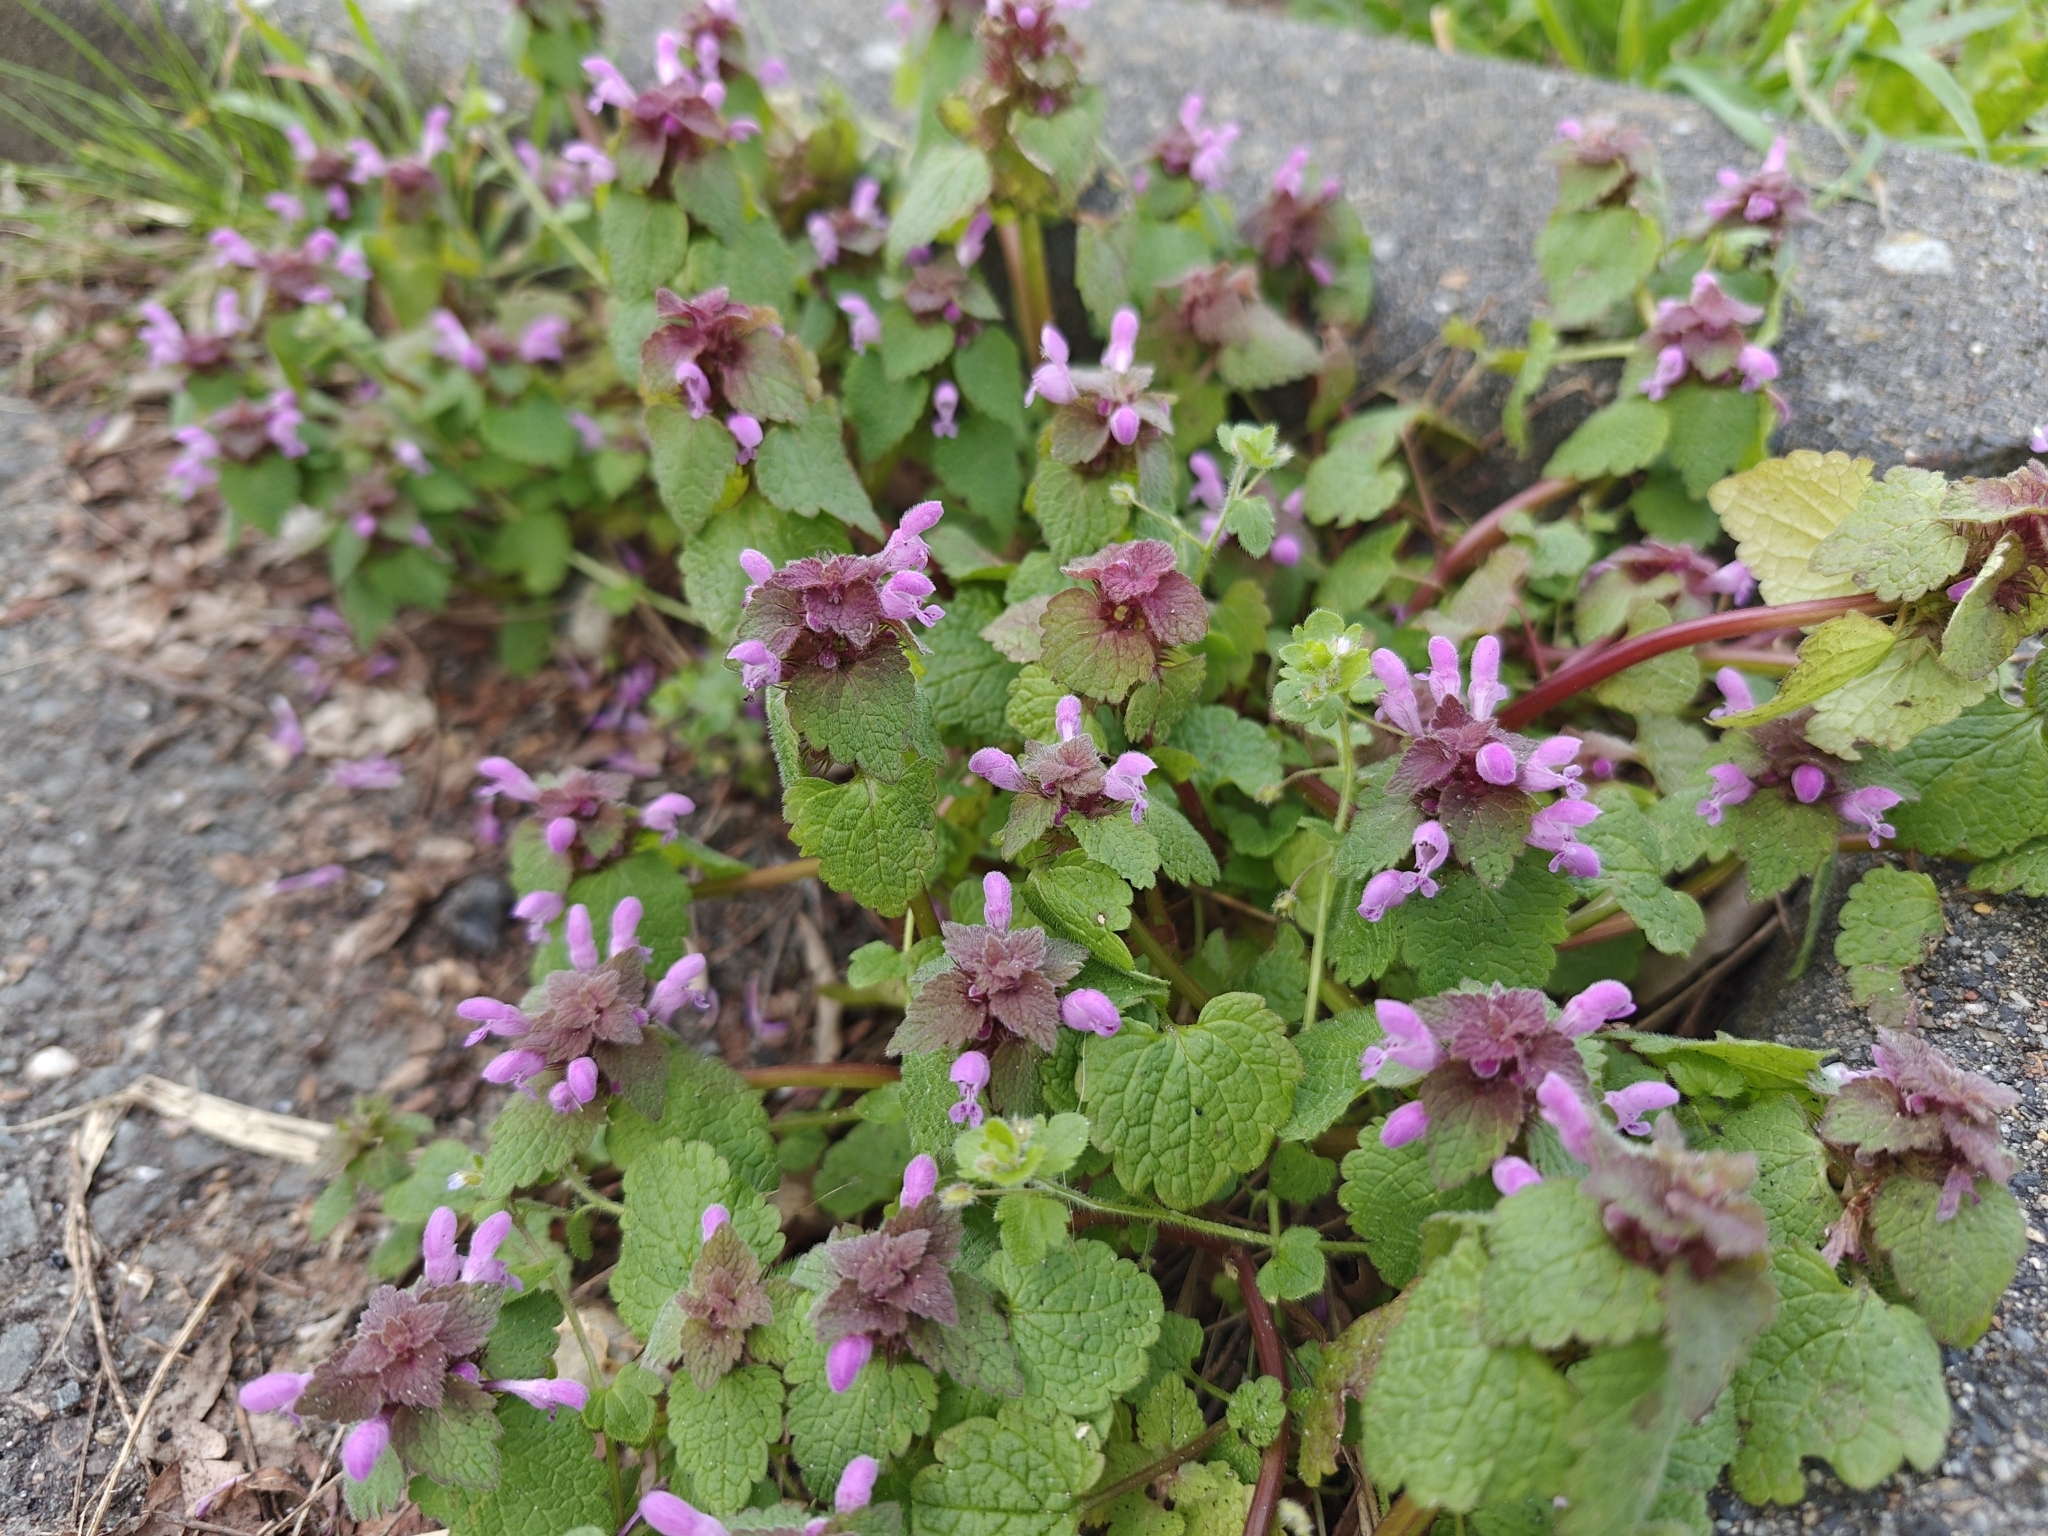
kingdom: Plantae
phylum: Tracheophyta
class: Magnoliopsida
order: Lamiales
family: Lamiaceae
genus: Lamium
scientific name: Lamium purpureum
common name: Red dead-nettle
